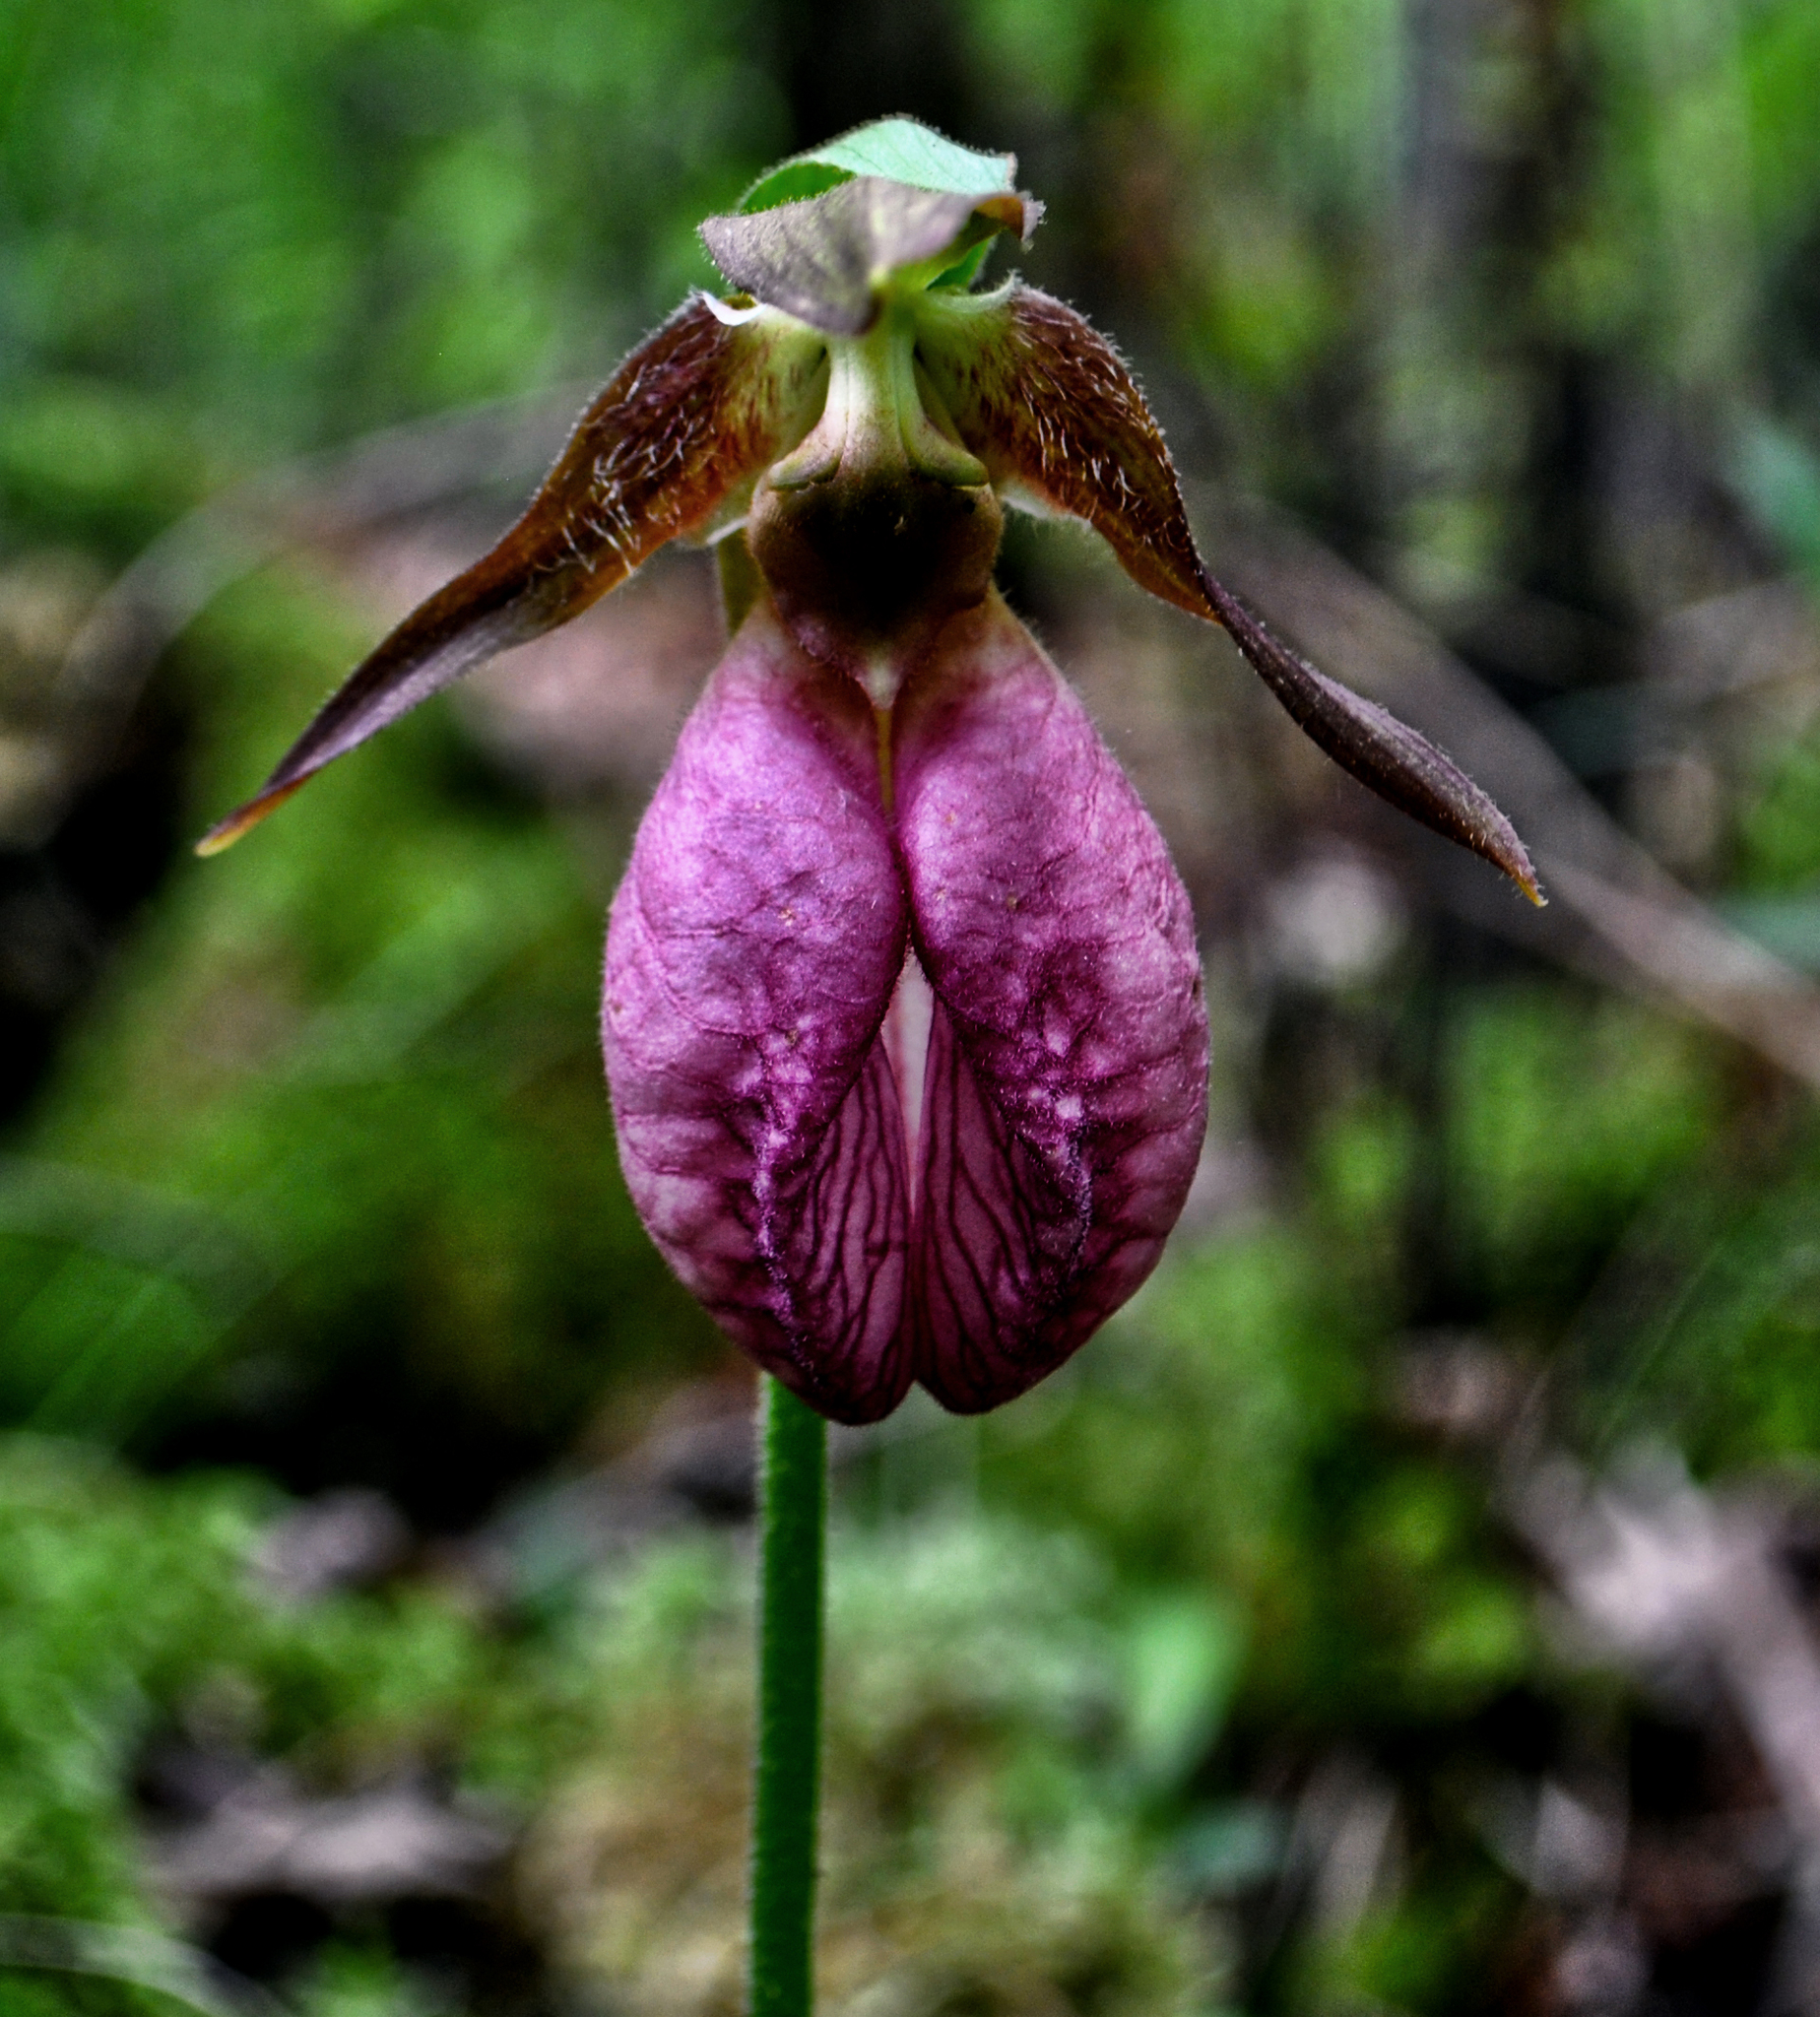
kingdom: Plantae
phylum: Tracheophyta
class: Liliopsida
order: Asparagales
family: Orchidaceae
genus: Cypripedium
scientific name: Cypripedium acaule
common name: Pink lady's-slipper
